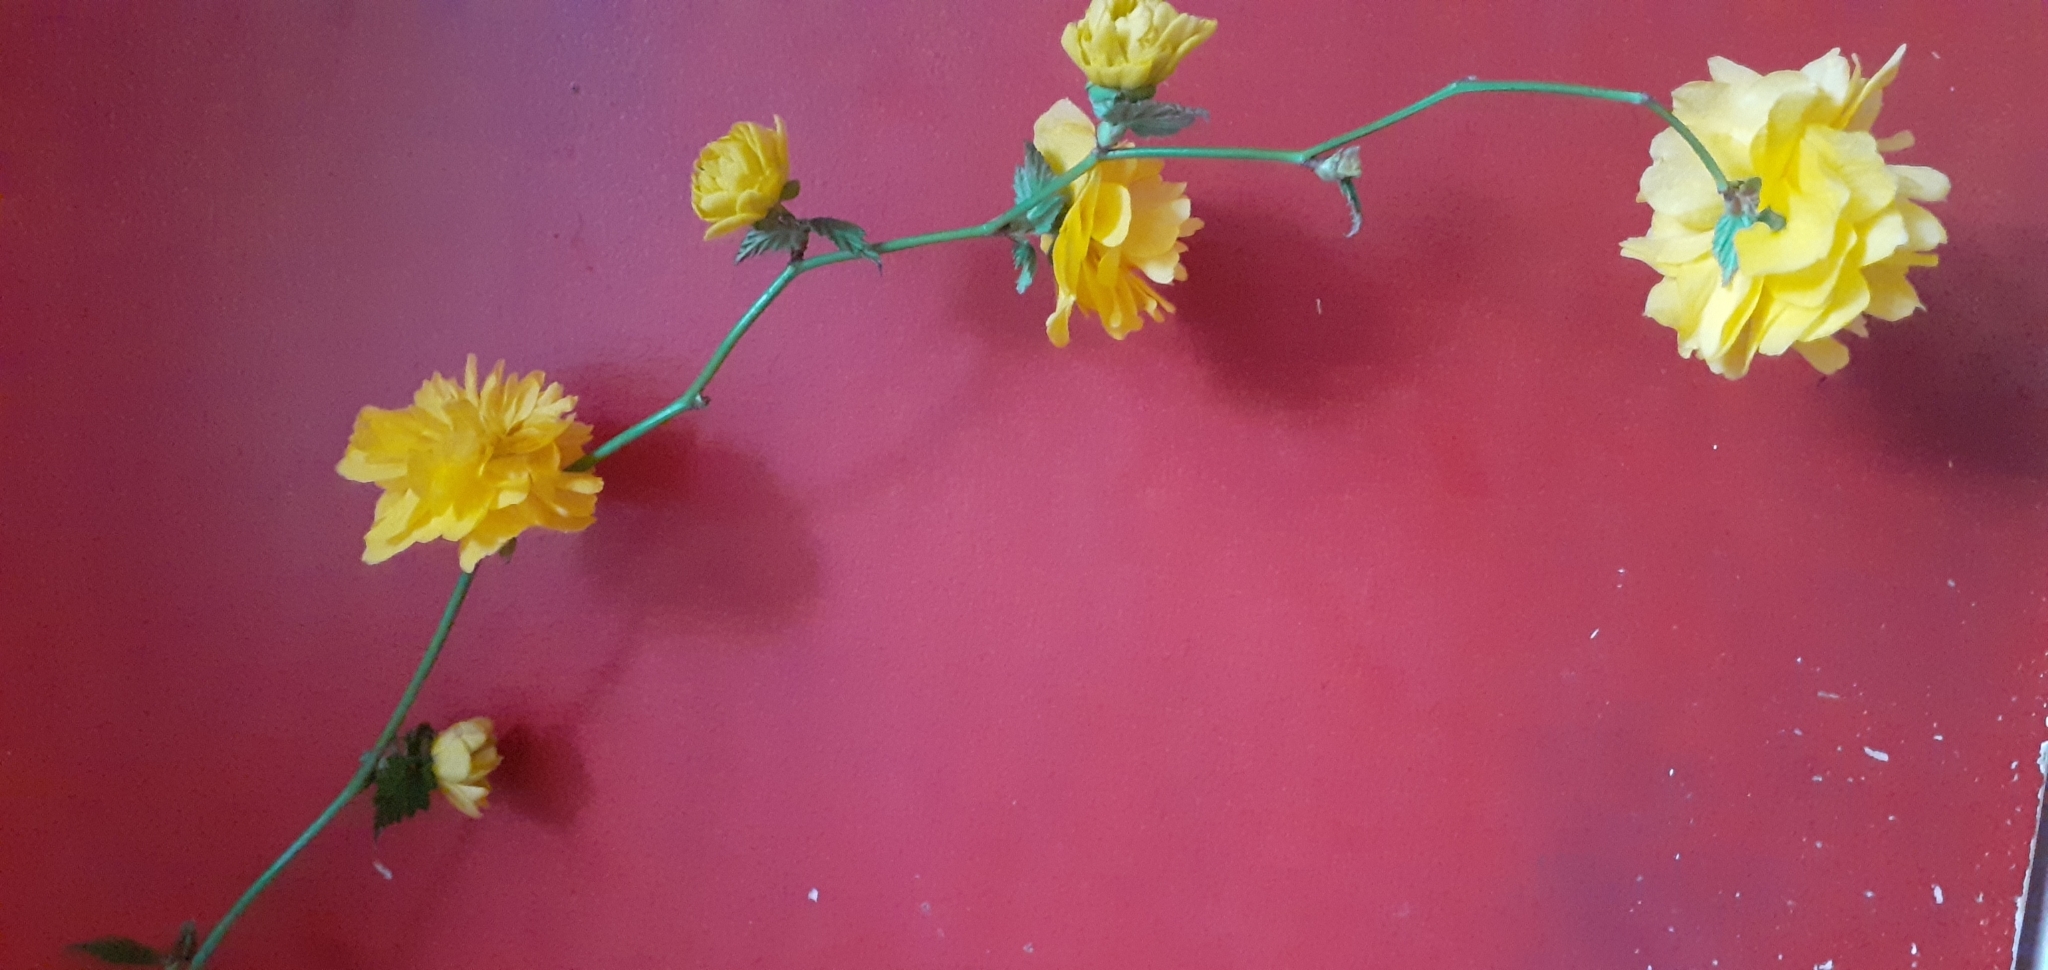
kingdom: Plantae
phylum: Tracheophyta
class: Magnoliopsida
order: Rosales
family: Rosaceae
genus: Kerria
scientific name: Kerria japonica
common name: Japanese kerria
